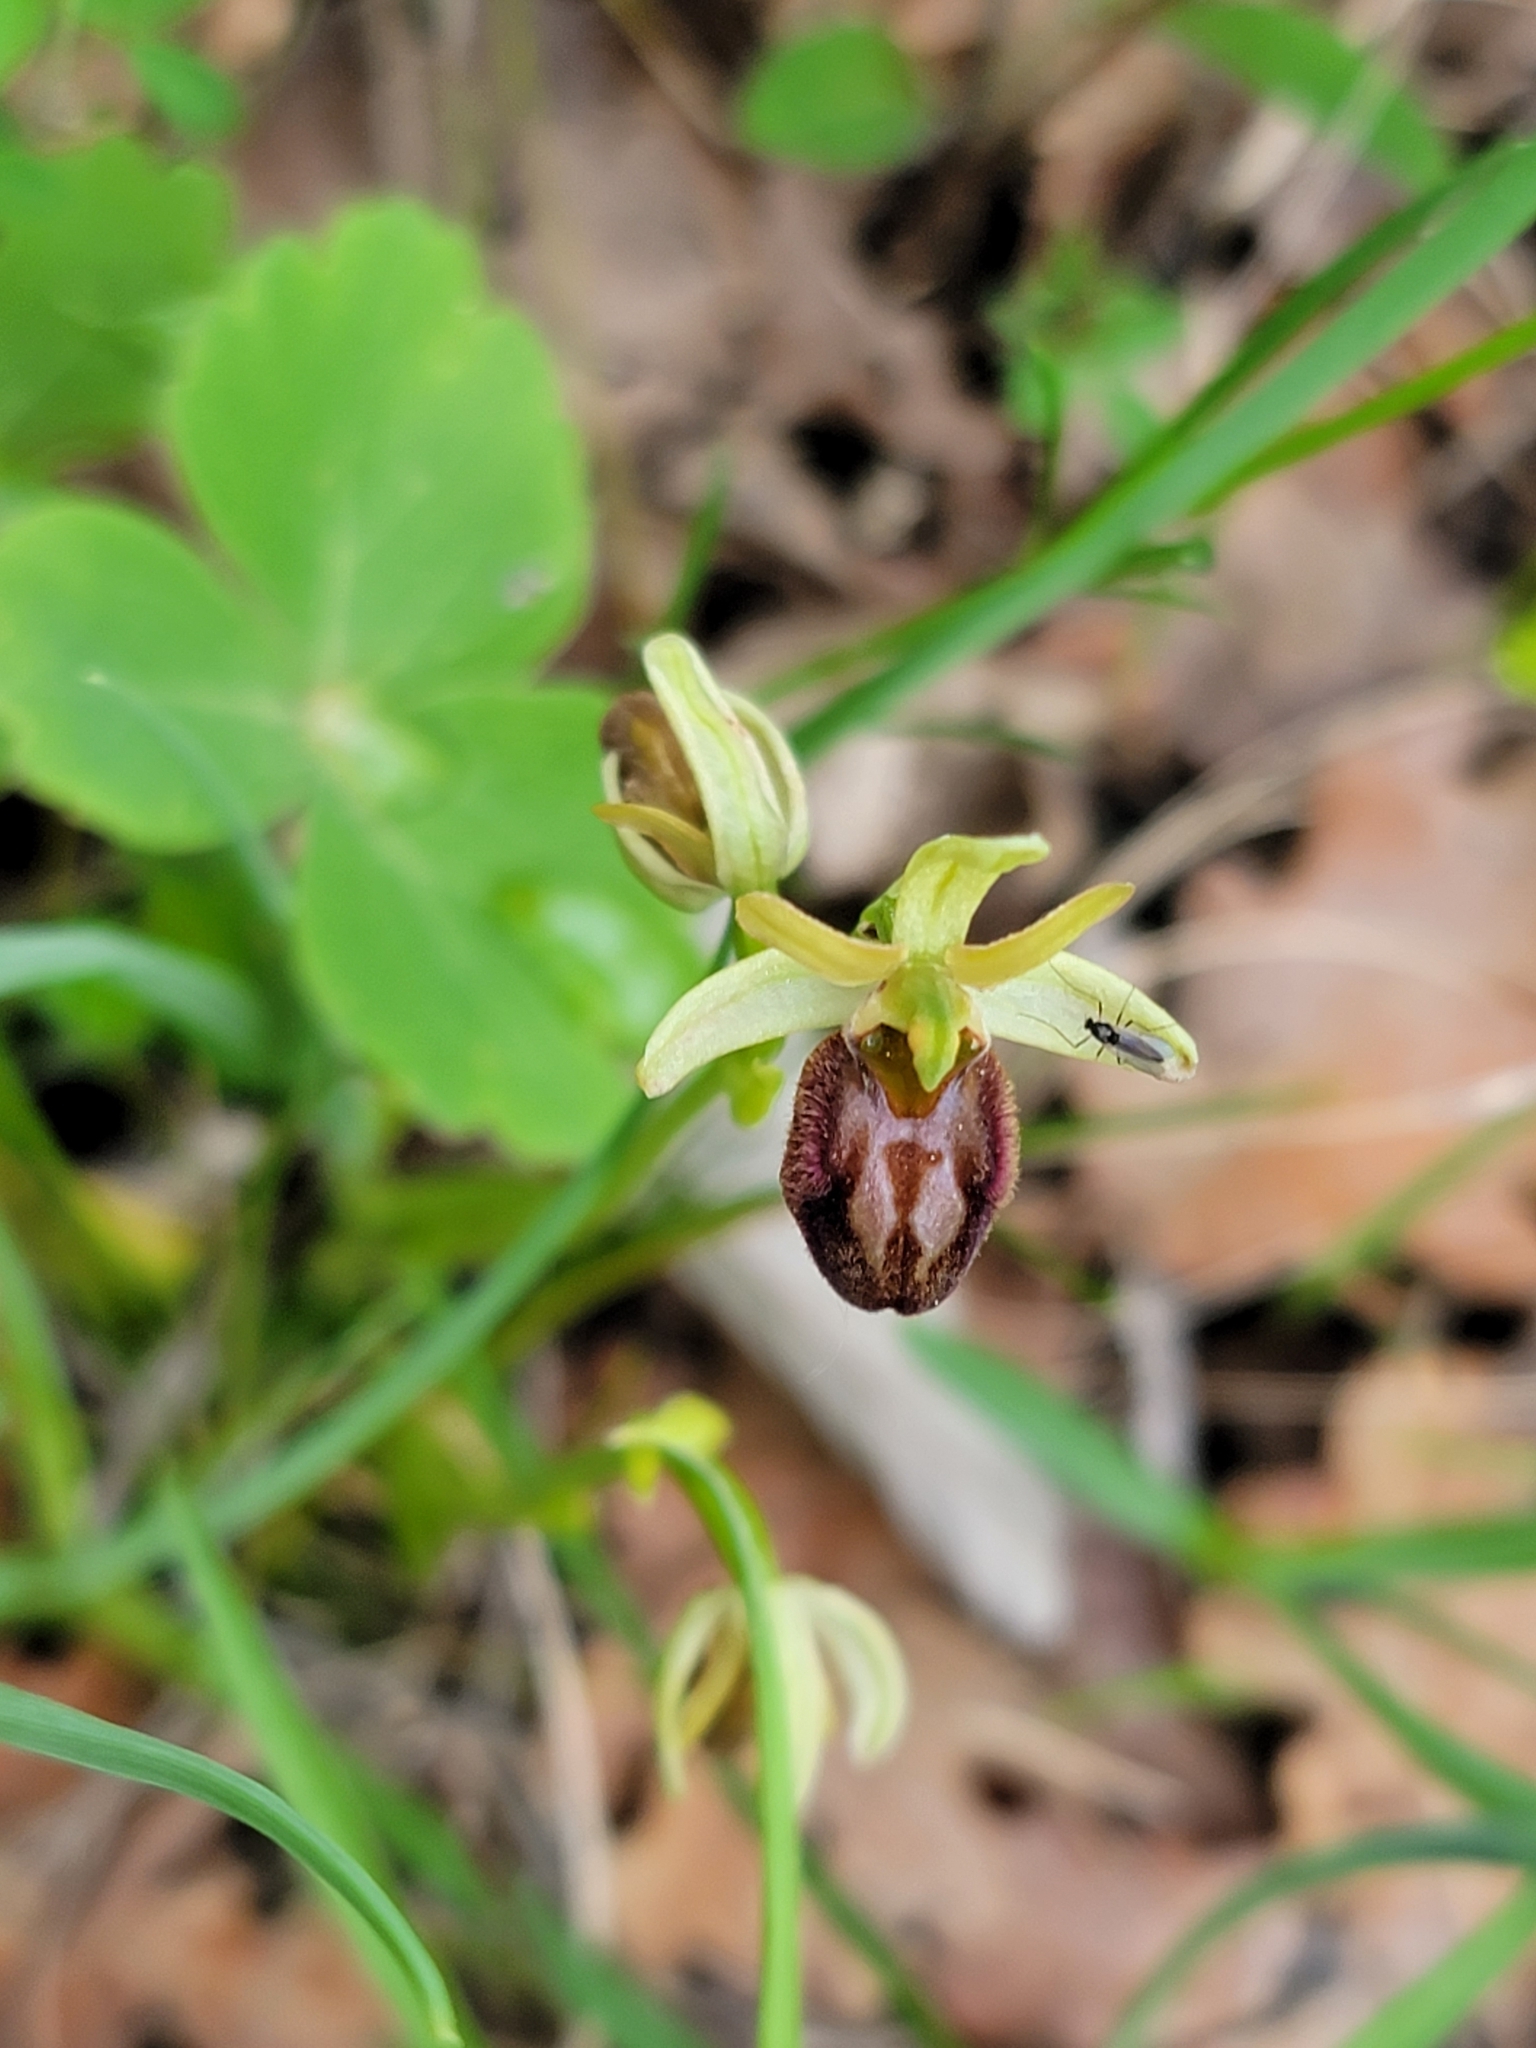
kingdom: Plantae
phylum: Tracheophyta
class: Liliopsida
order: Asparagales
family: Orchidaceae
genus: Ophrys
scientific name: Ophrys sphegodes
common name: Early spider-orchid
